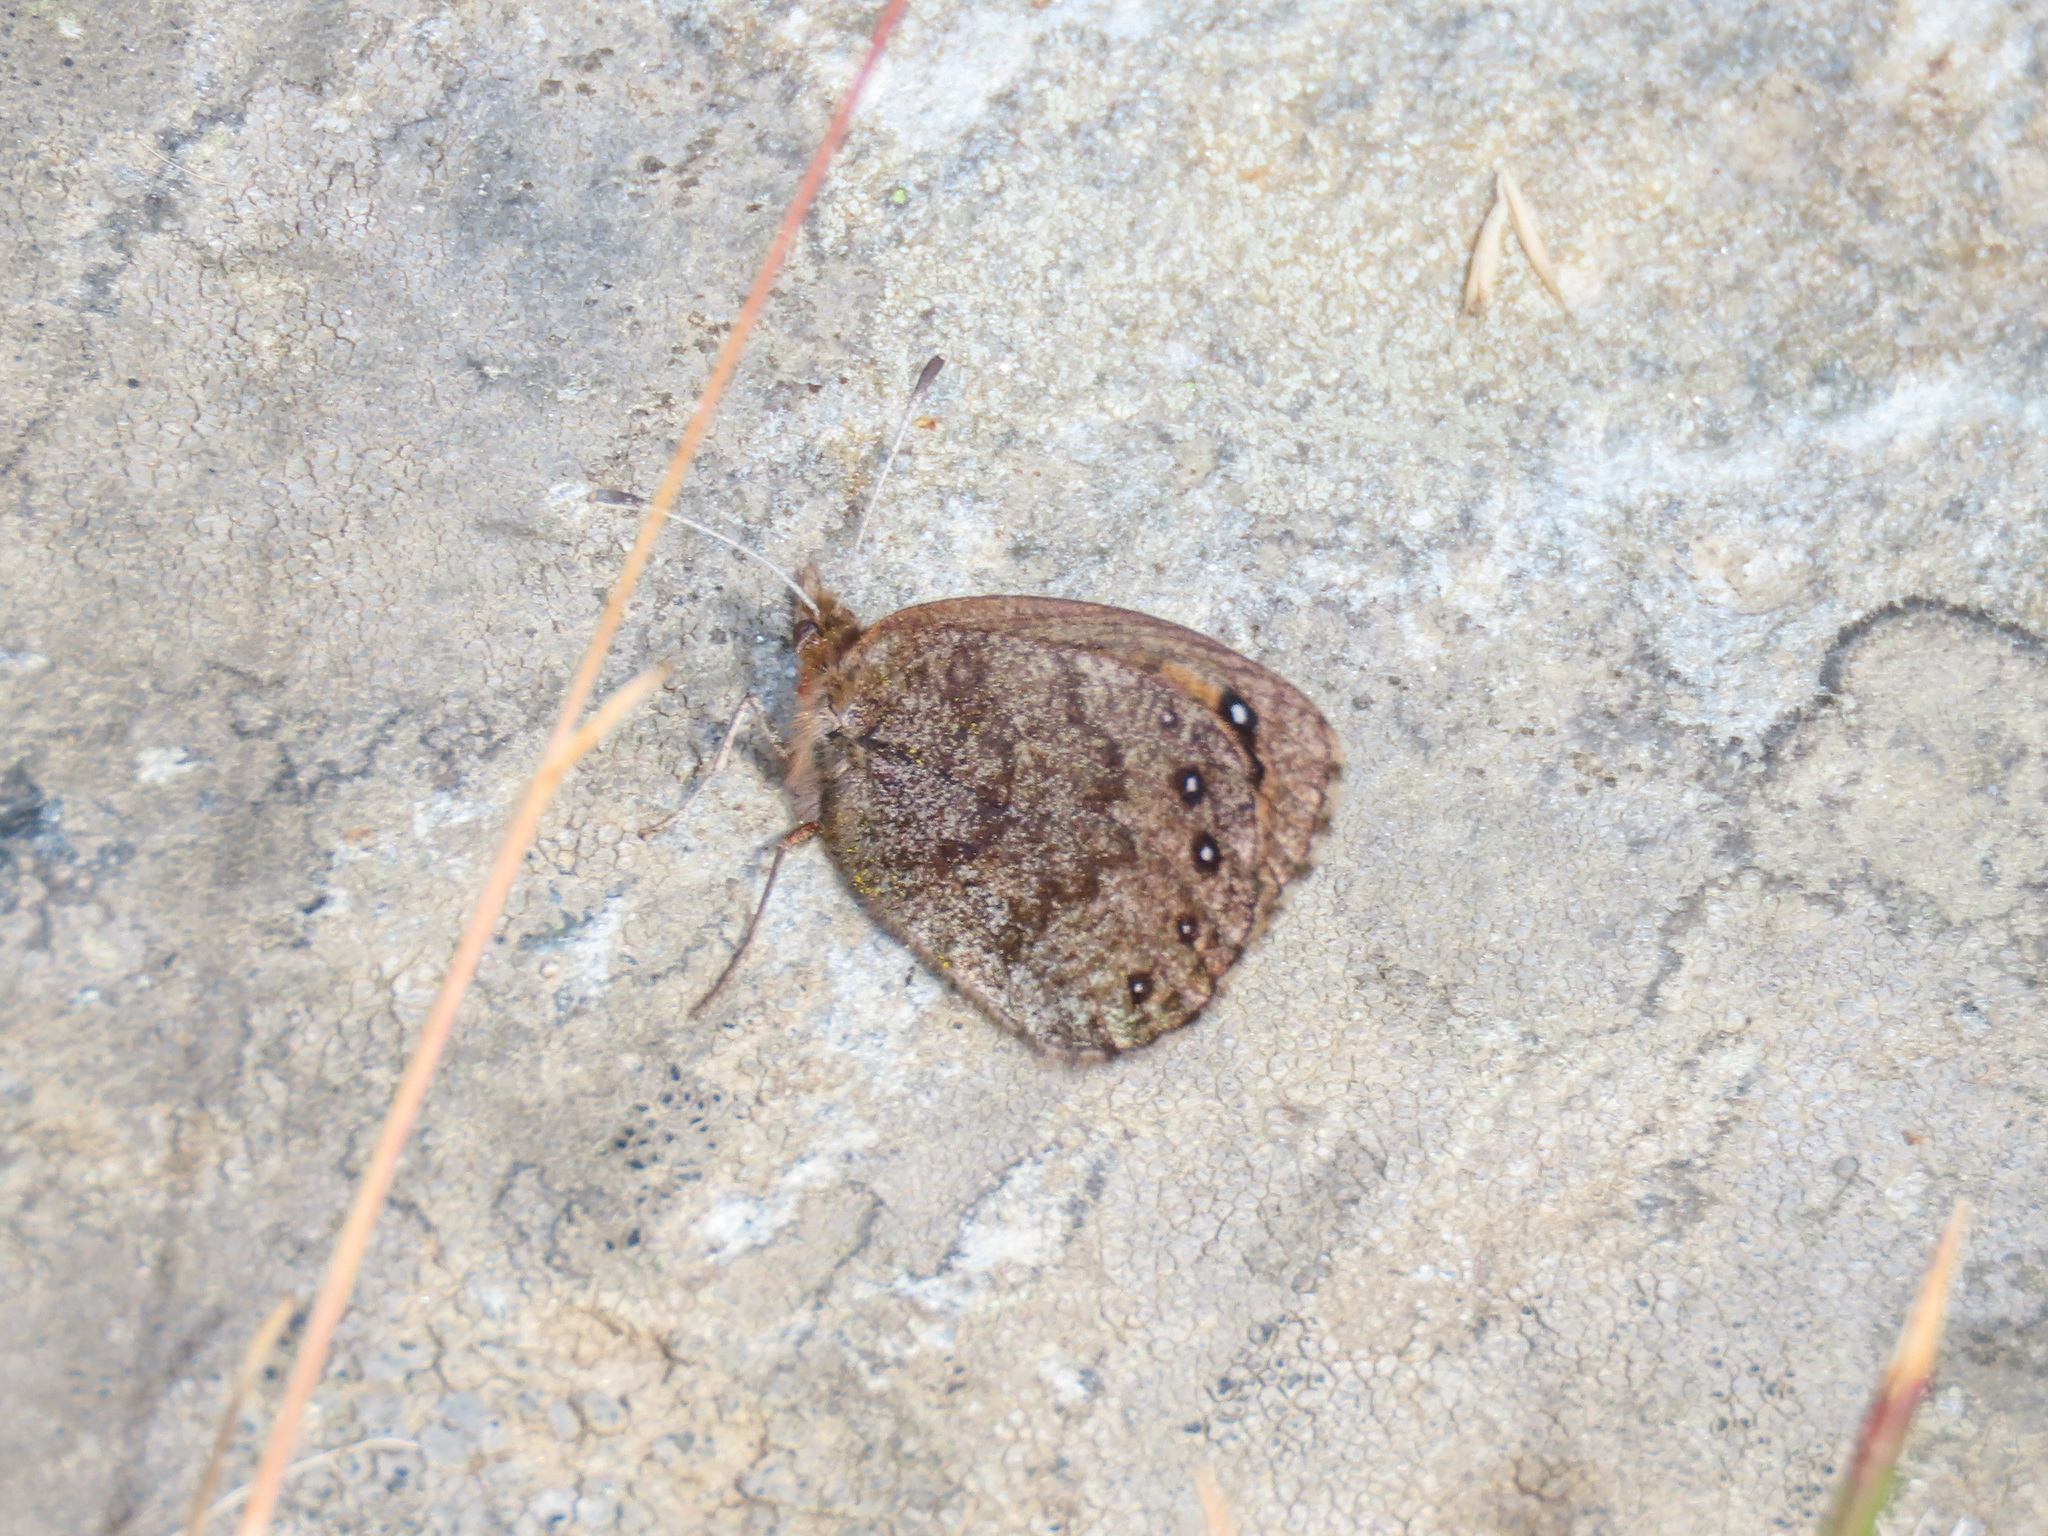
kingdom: Animalia
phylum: Arthropoda
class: Insecta
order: Lepidoptera
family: Nymphalidae
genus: Erebia
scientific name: Erebia gorge
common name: Silky ringlet
